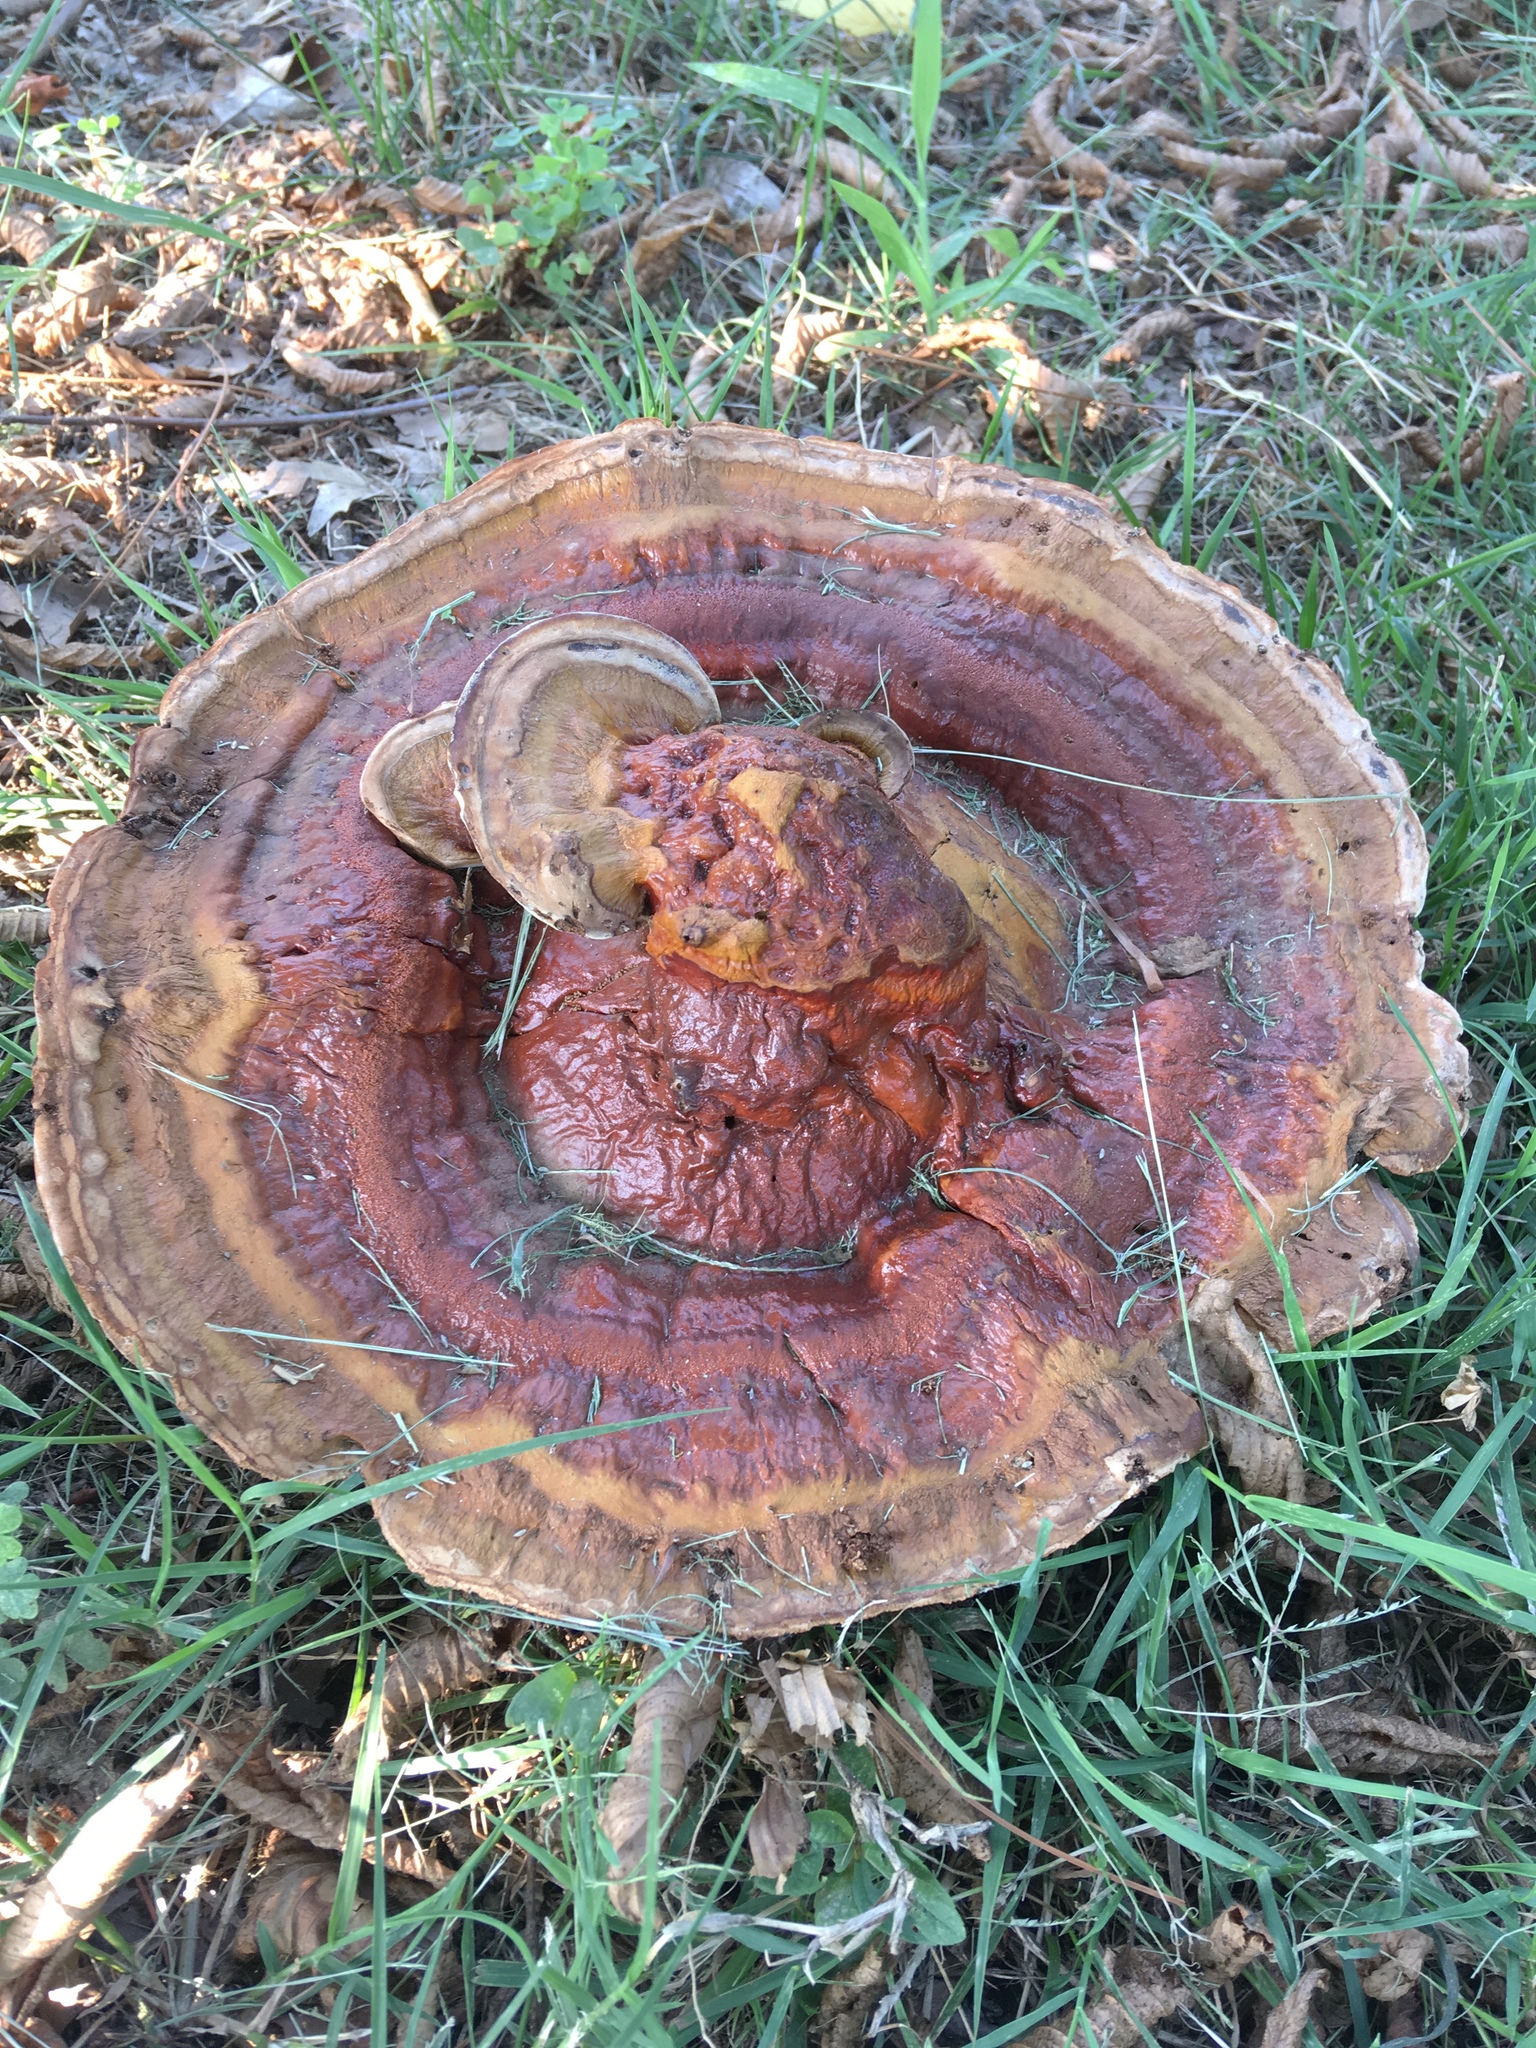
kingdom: Fungi
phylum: Basidiomycota
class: Agaricomycetes
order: Polyporales
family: Polyporaceae
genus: Ganoderma
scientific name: Ganoderma resinaceum
